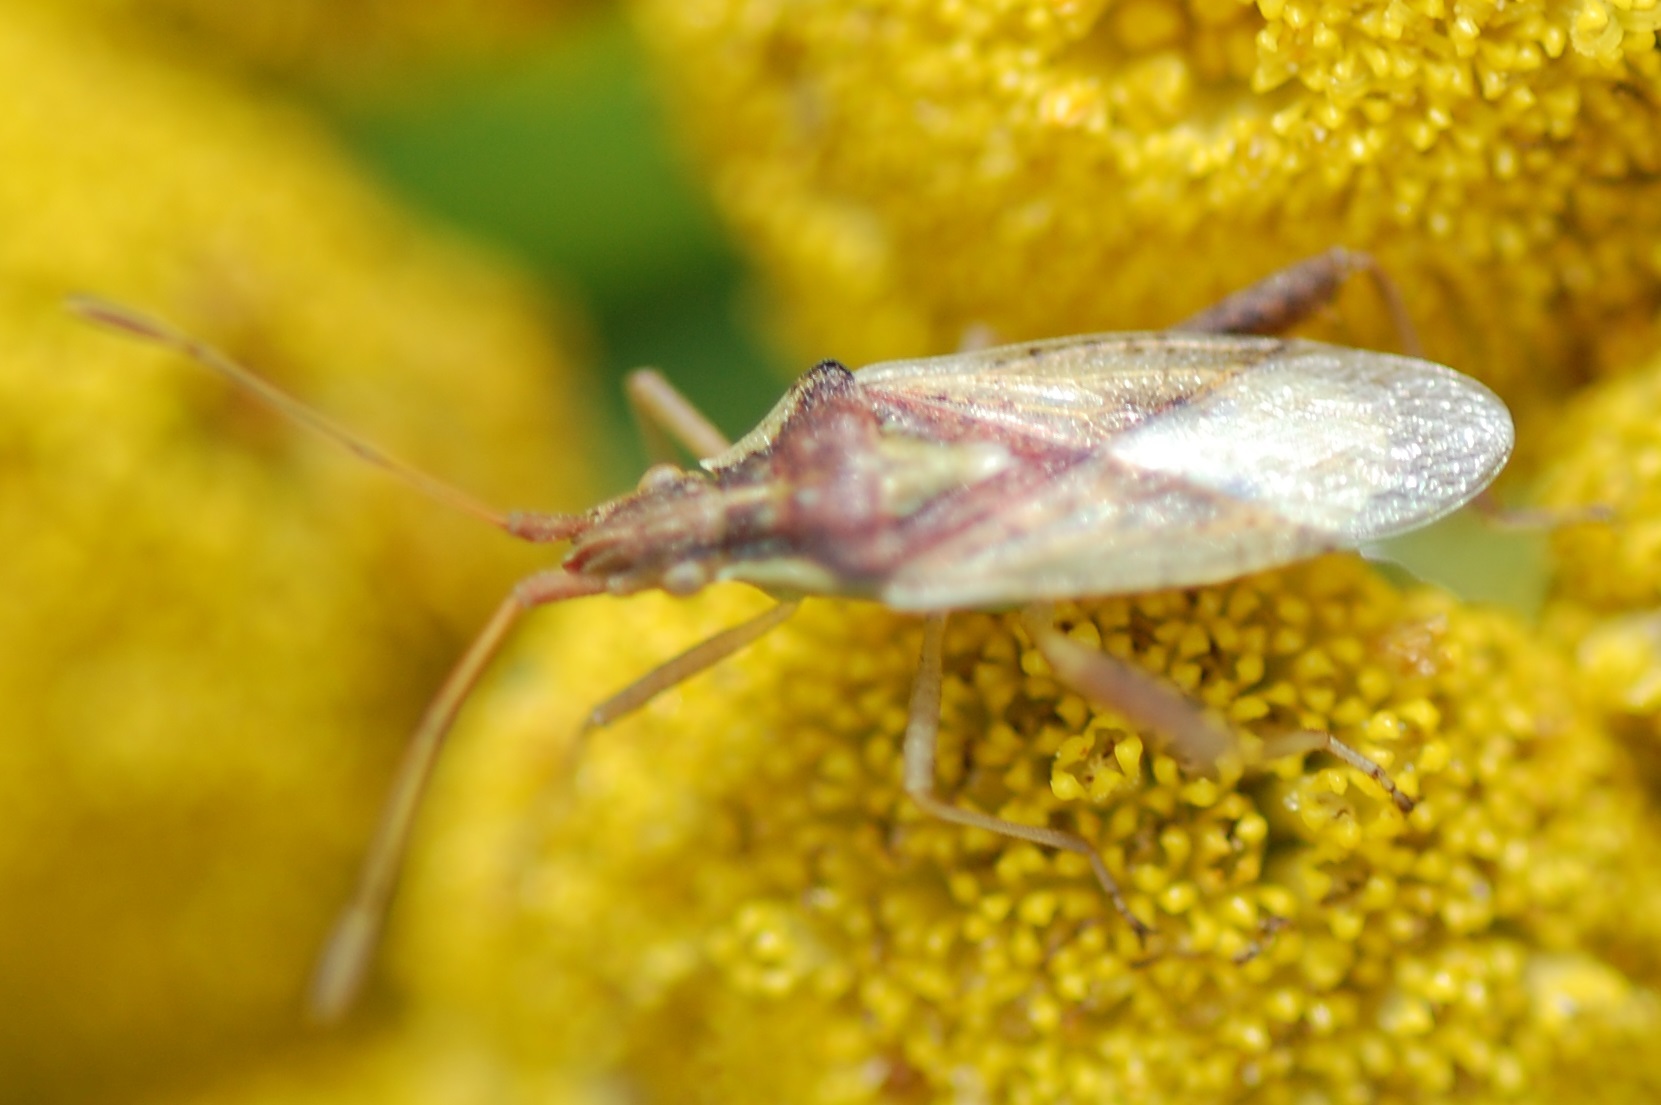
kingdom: Animalia
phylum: Arthropoda
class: Insecta
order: Hemiptera
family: Rhopalidae
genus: Harmostes
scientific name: Harmostes reflexulus
